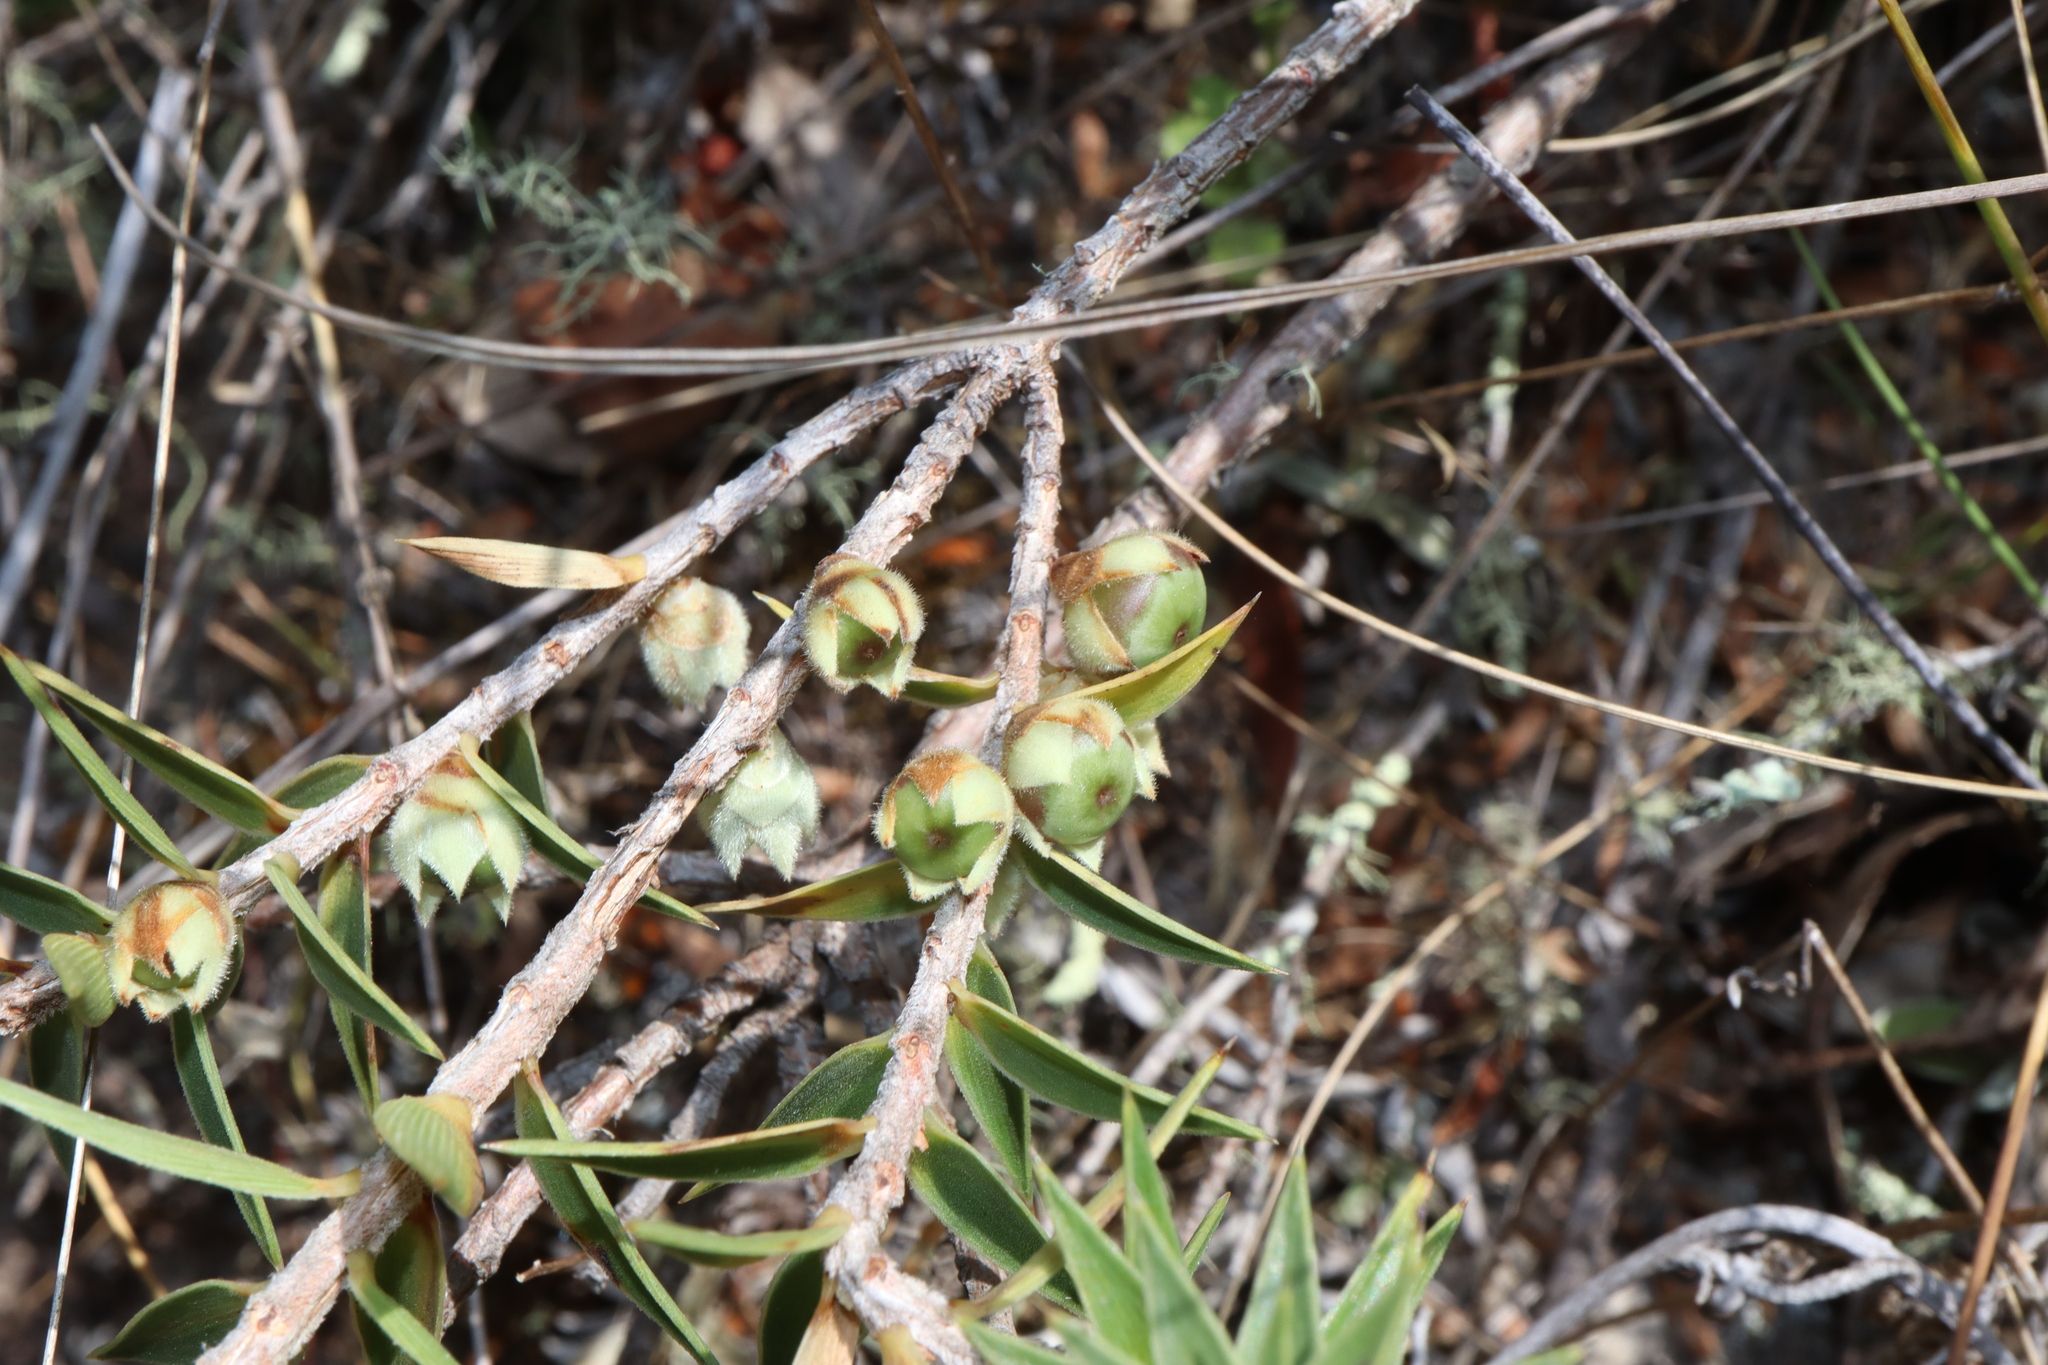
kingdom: Plantae
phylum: Tracheophyta
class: Magnoliopsida
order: Ericales
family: Ericaceae
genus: Melichrus
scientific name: Melichrus urceolatus
